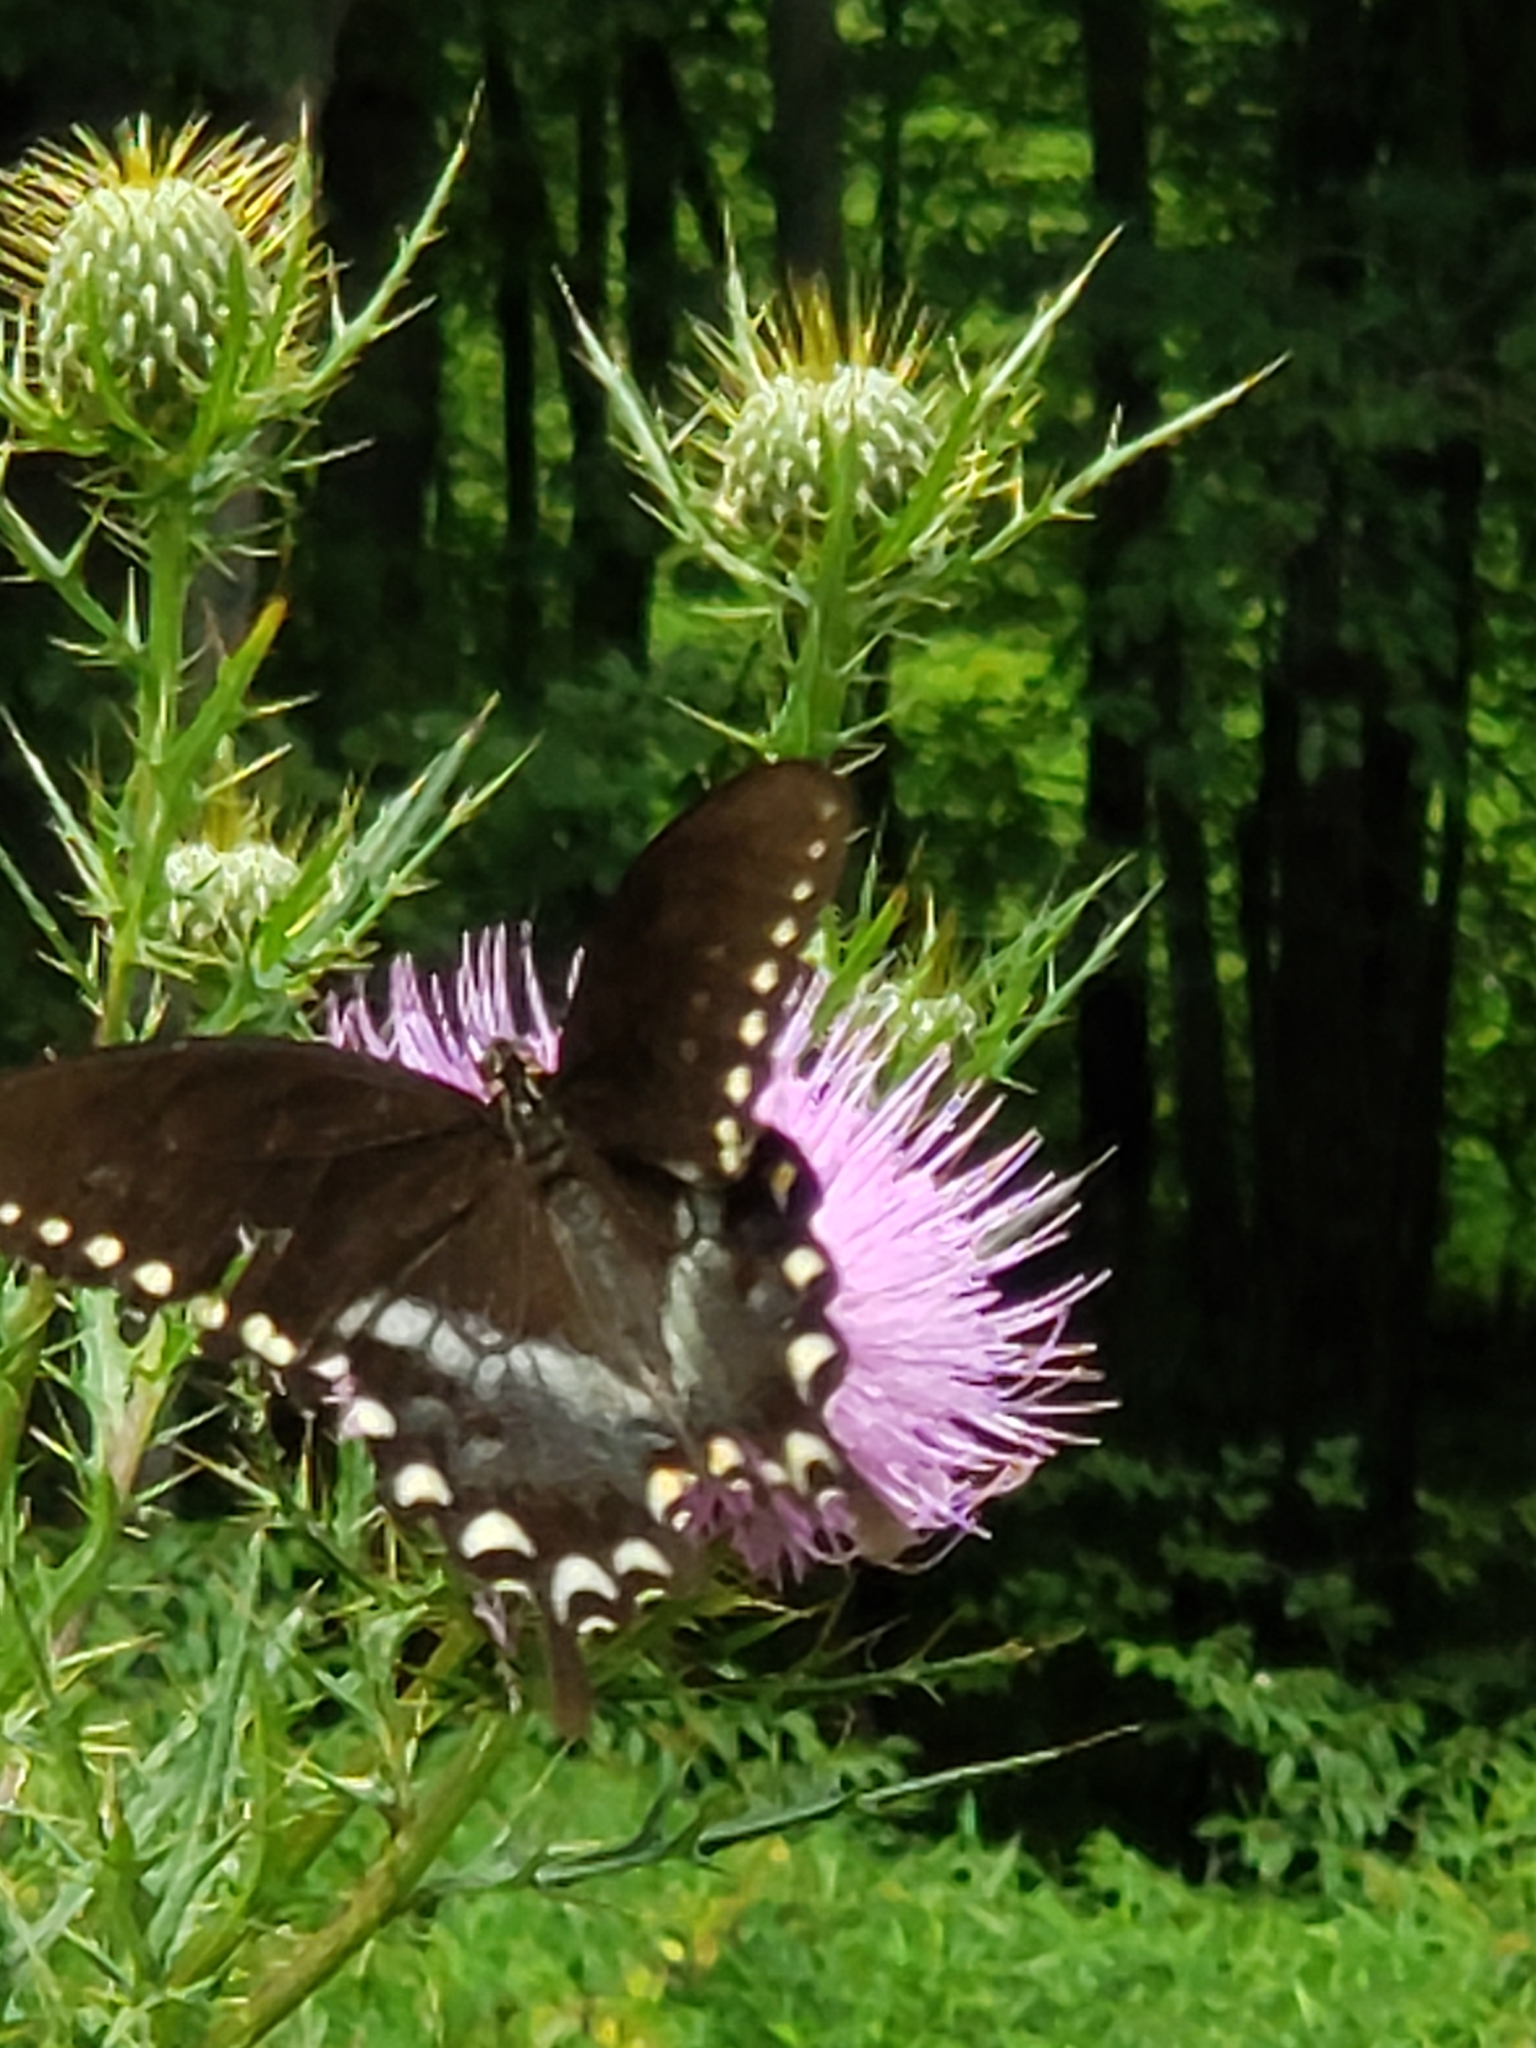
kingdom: Animalia
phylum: Arthropoda
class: Insecta
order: Lepidoptera
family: Papilionidae
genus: Papilio
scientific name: Papilio troilus
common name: Spicebush swallowtail
